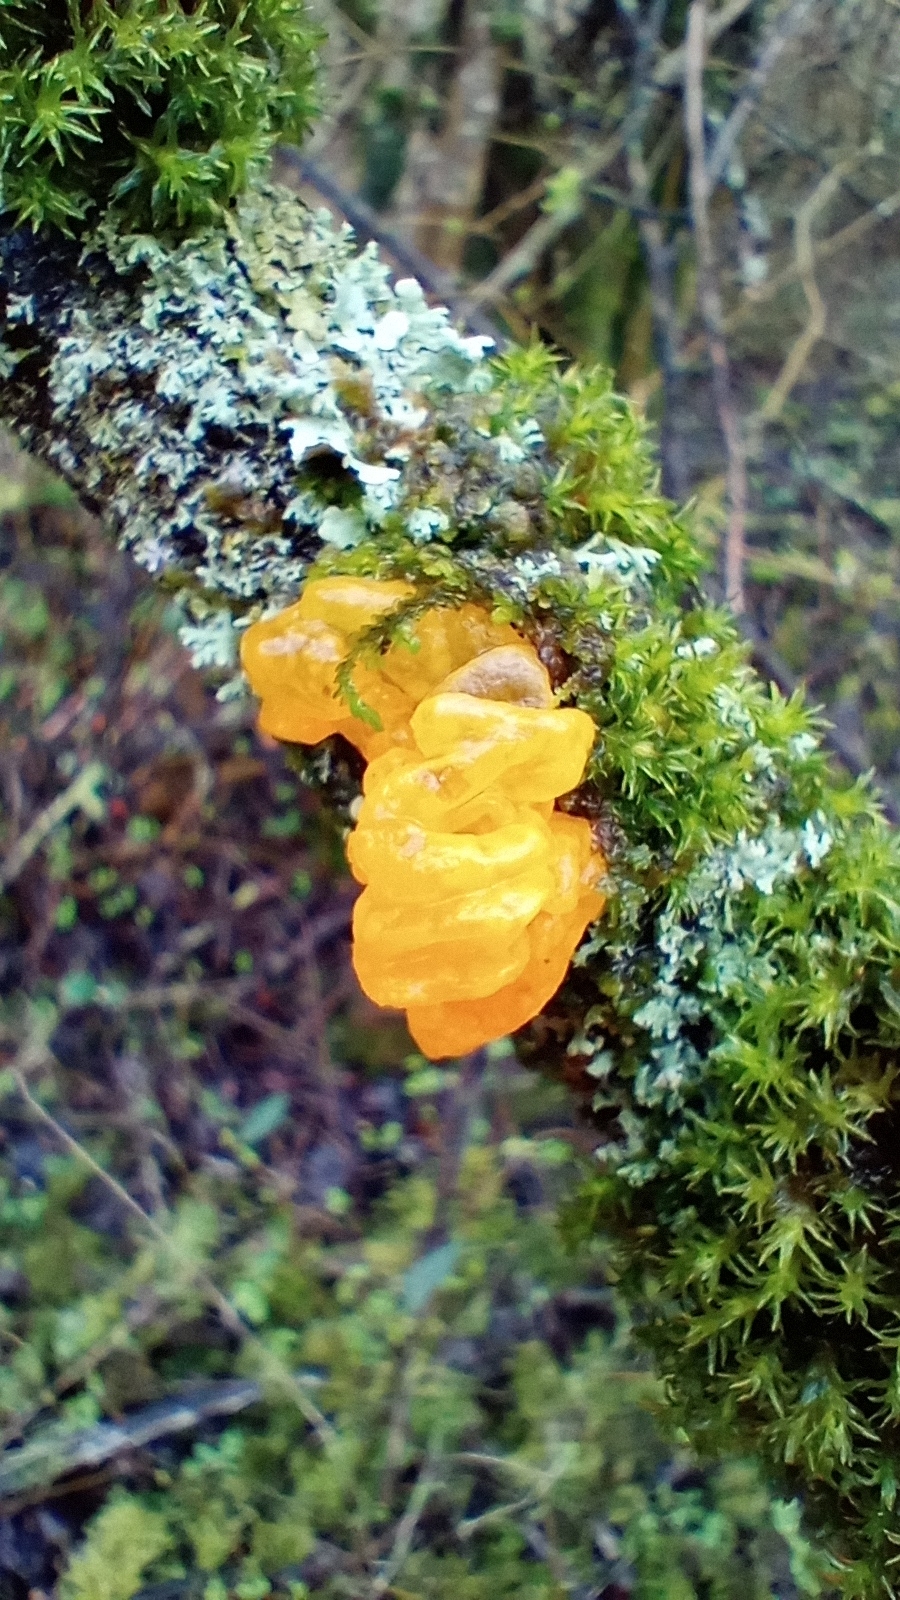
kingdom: Fungi
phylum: Basidiomycota
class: Tremellomycetes
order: Tremellales
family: Tremellaceae
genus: Tremella
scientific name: Tremella mesenterica
